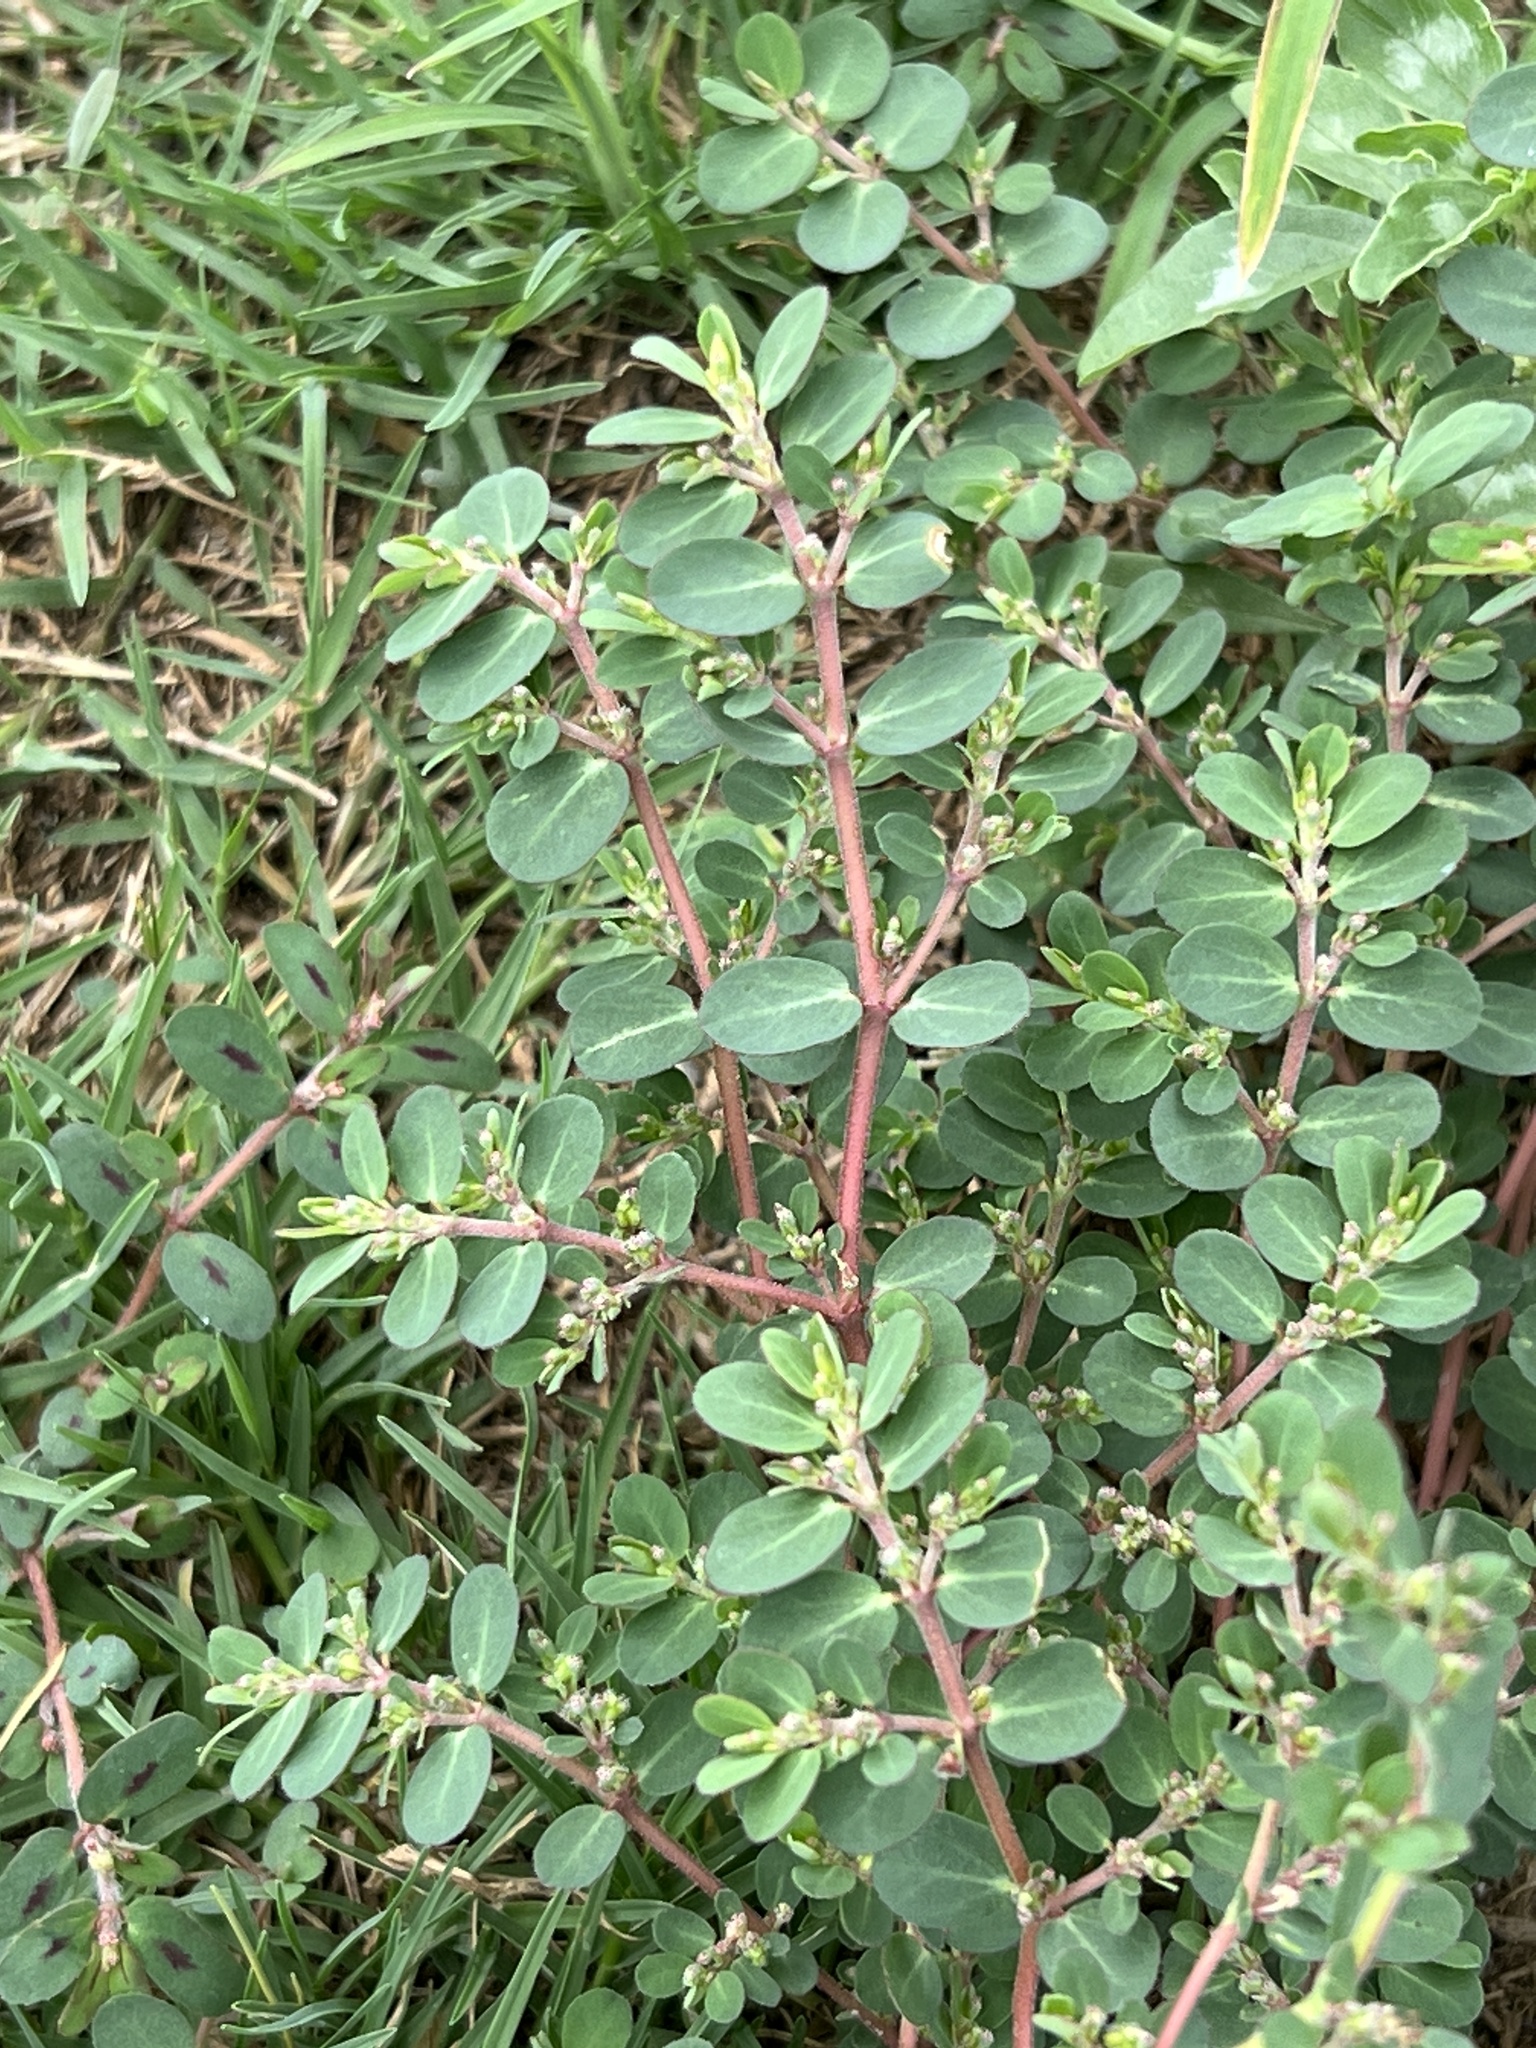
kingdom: Plantae
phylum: Tracheophyta
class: Magnoliopsida
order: Malpighiales
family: Euphorbiaceae
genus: Euphorbia
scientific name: Euphorbia prostrata
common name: Prostrate sandmat
